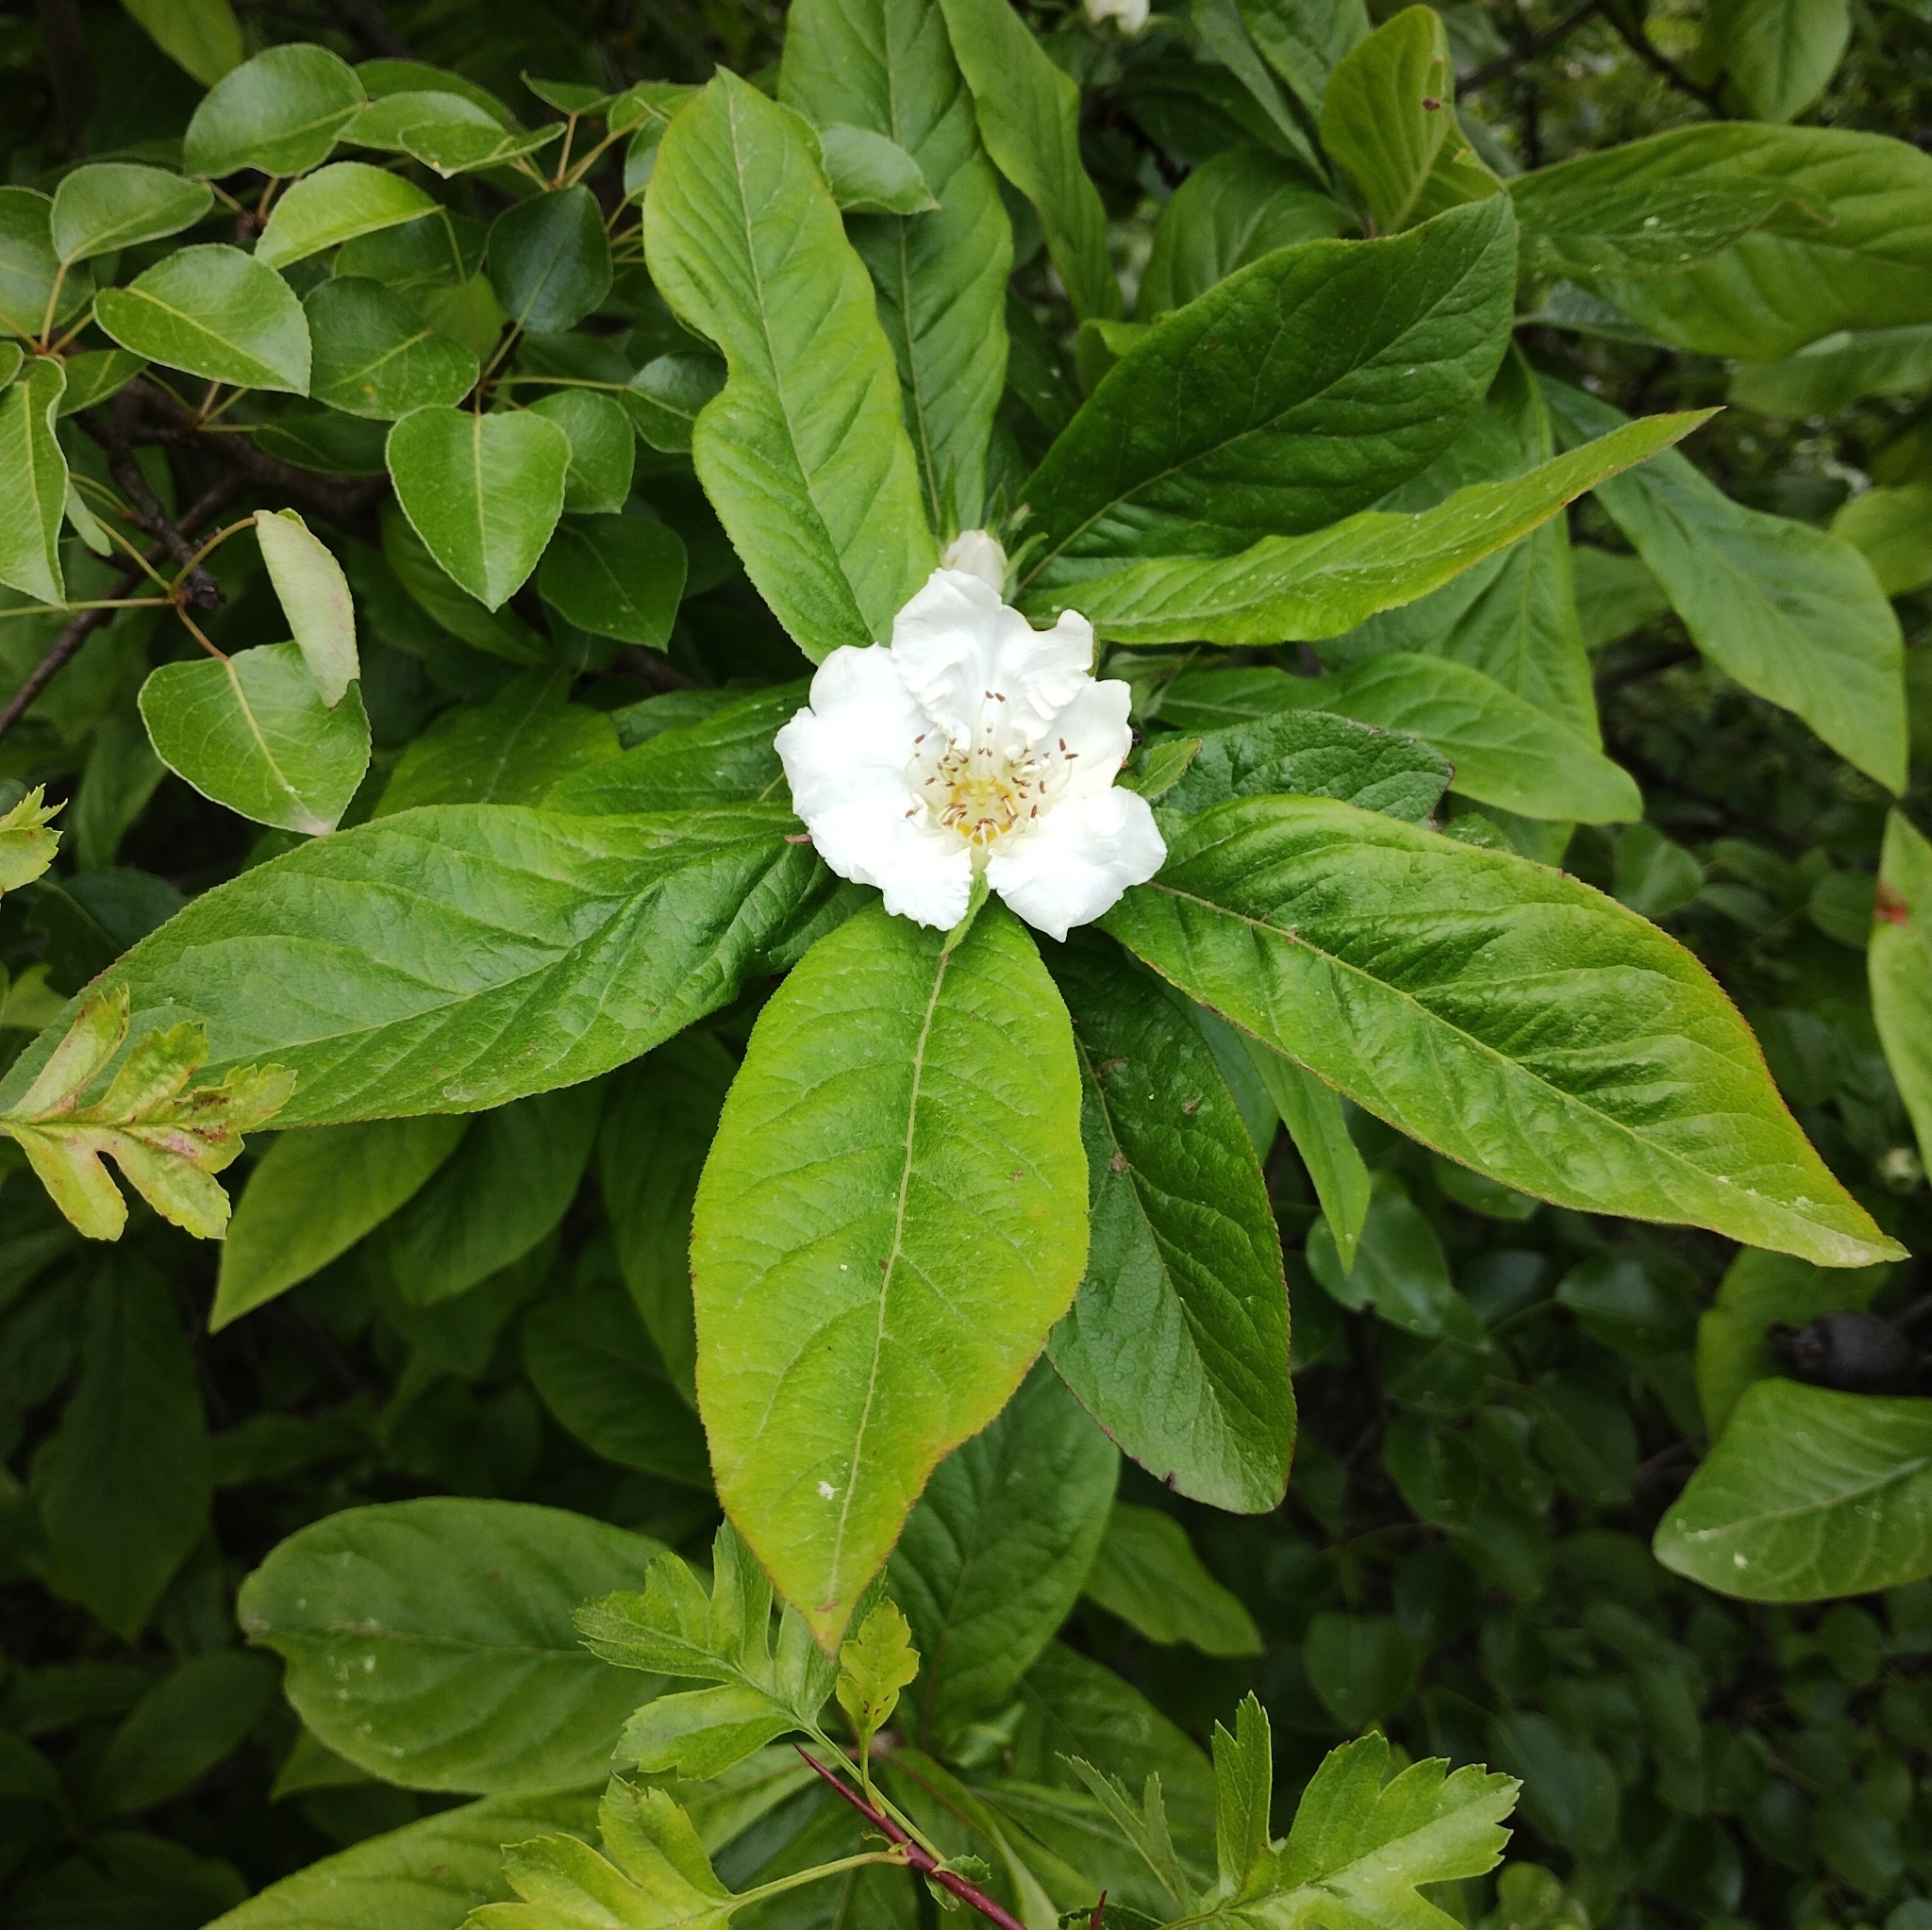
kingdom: Plantae
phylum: Tracheophyta
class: Magnoliopsida
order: Rosales
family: Rosaceae
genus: Mespilus
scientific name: Mespilus germanica
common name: Medlar
